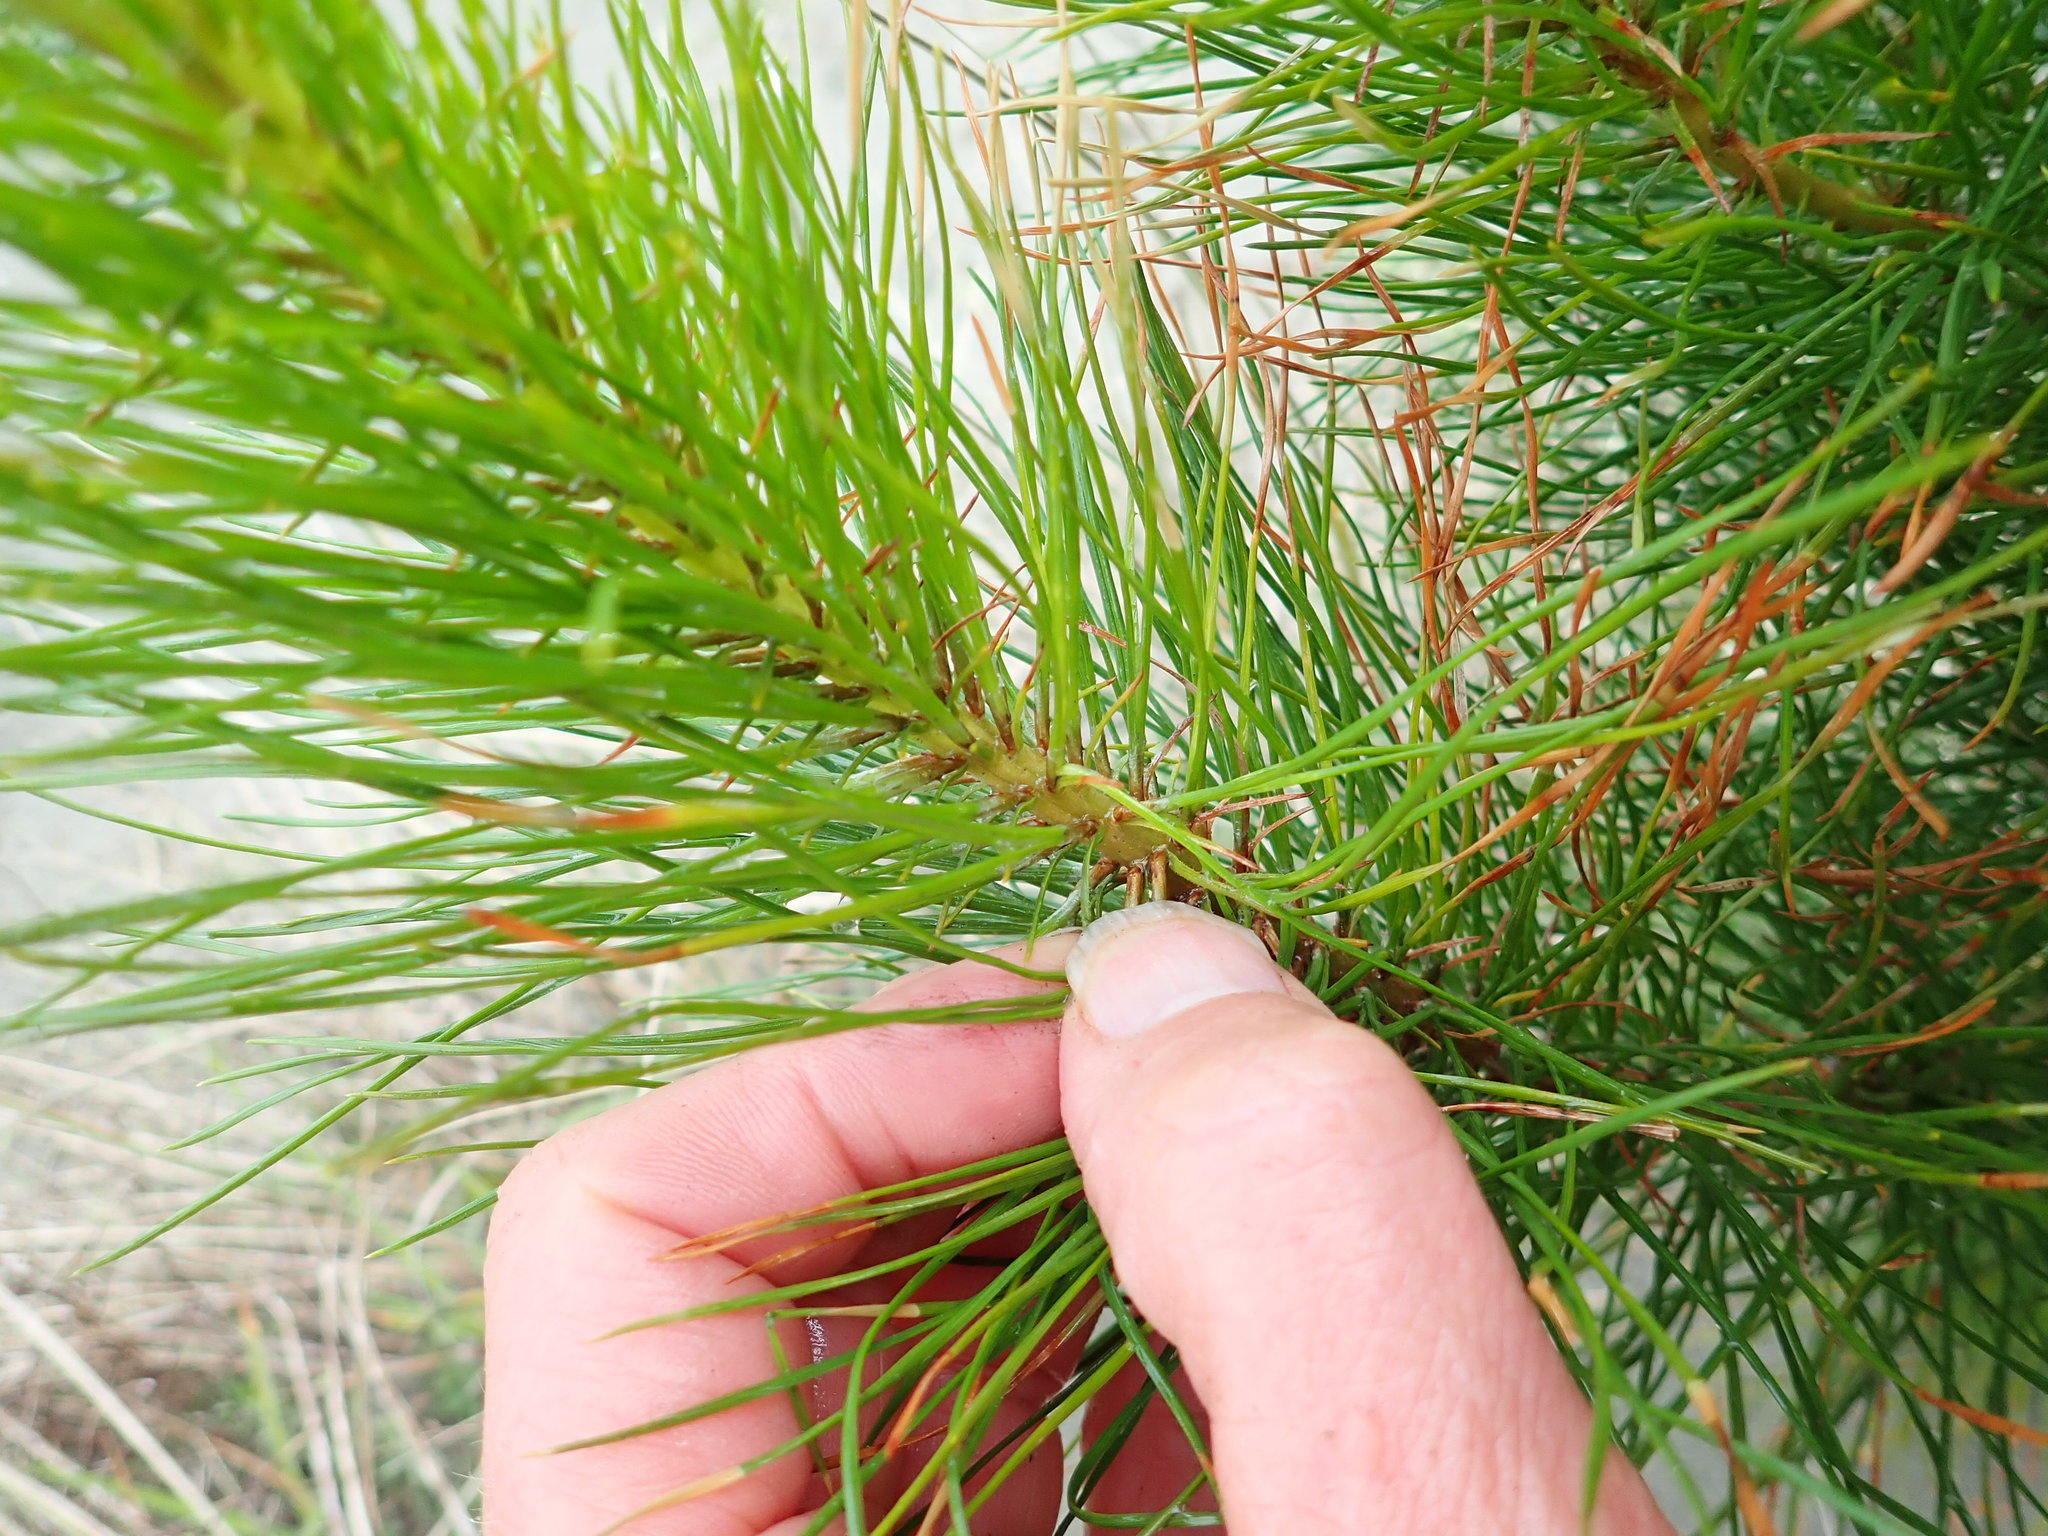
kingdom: Plantae
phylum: Tracheophyta
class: Pinopsida
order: Pinales
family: Pinaceae
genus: Pinus
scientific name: Pinus radiata
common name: Monterey pine
